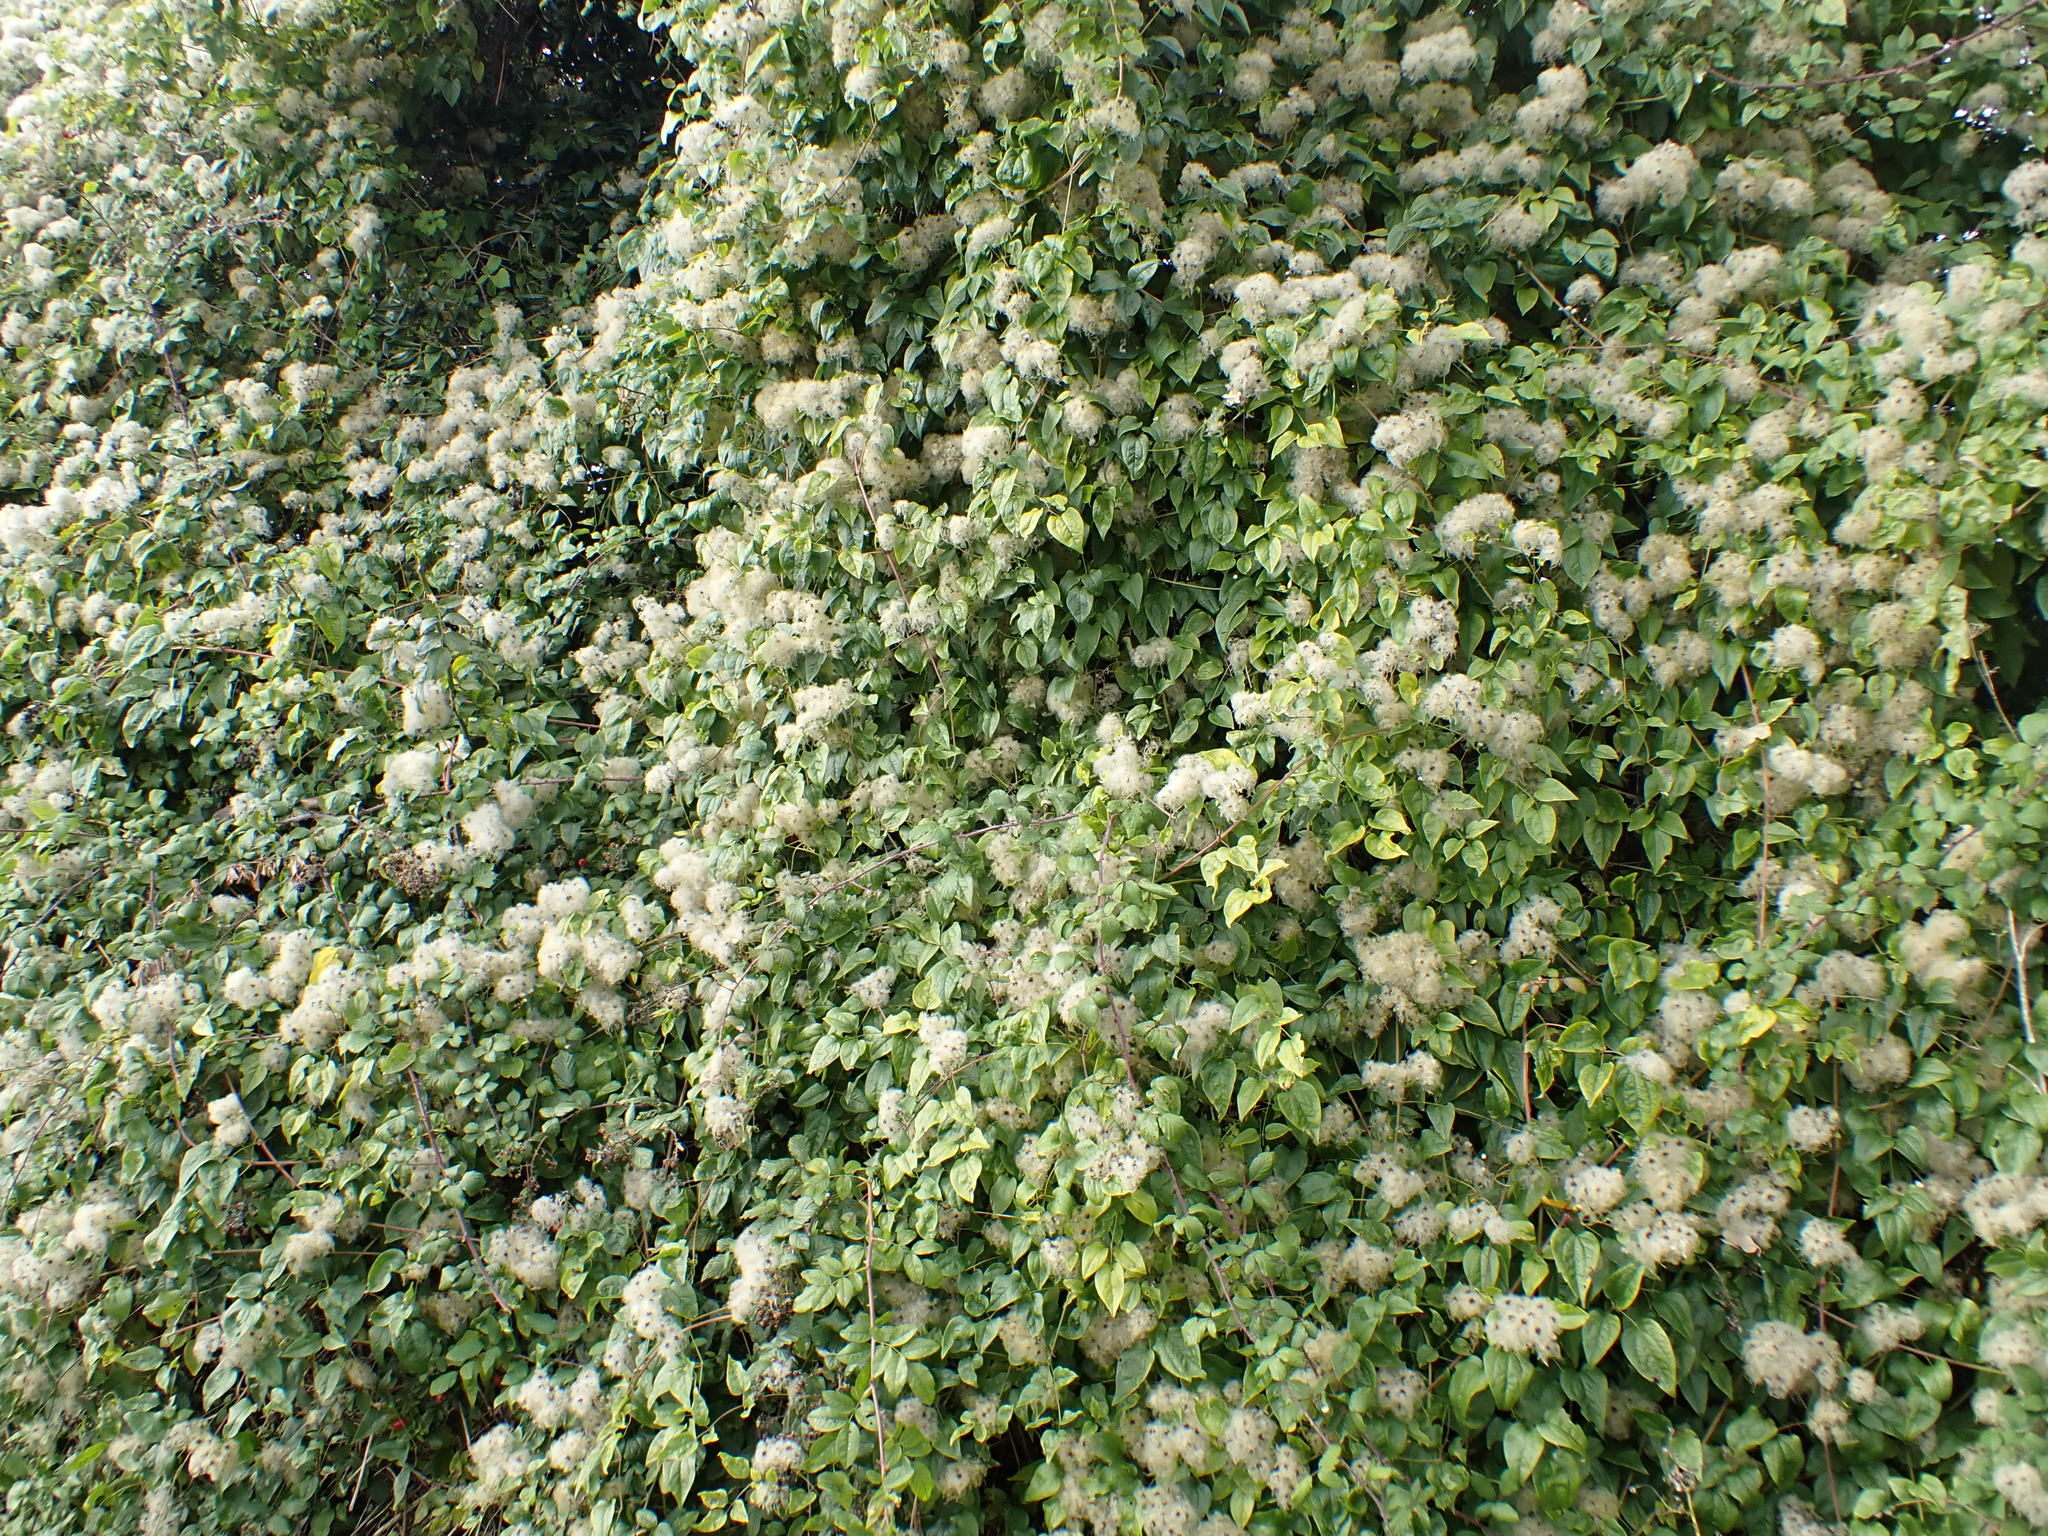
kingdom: Plantae
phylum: Tracheophyta
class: Magnoliopsida
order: Ranunculales
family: Ranunculaceae
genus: Clematis
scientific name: Clematis vitalba
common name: Evergreen clematis
